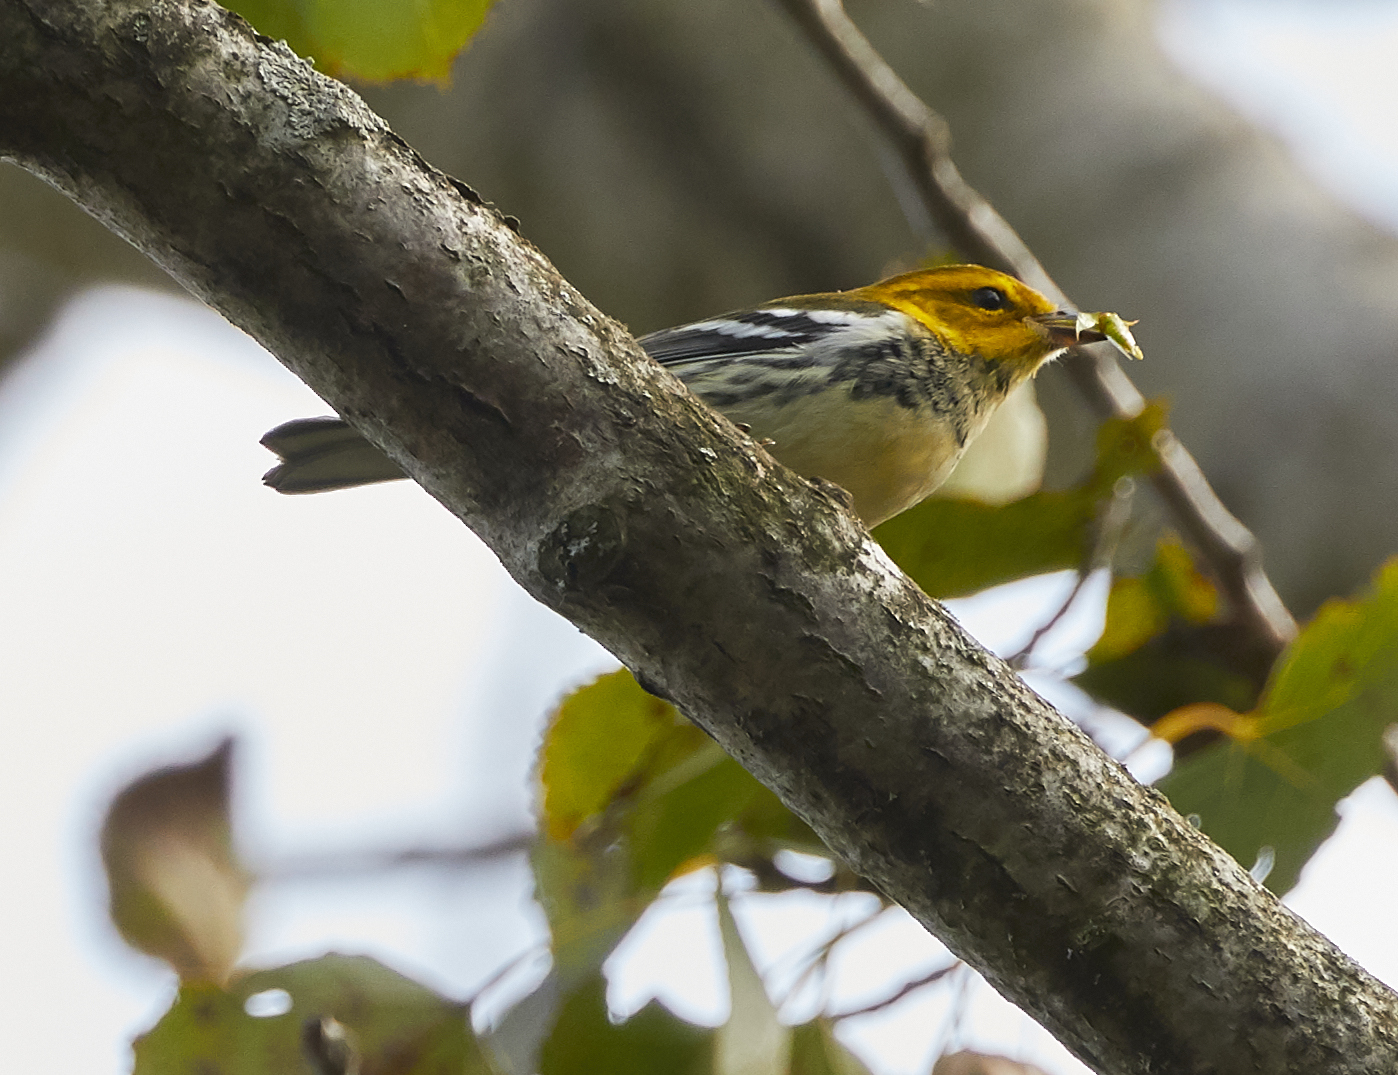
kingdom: Animalia
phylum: Chordata
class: Aves
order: Passeriformes
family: Parulidae
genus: Setophaga
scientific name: Setophaga virens
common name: Black-throated green warbler
